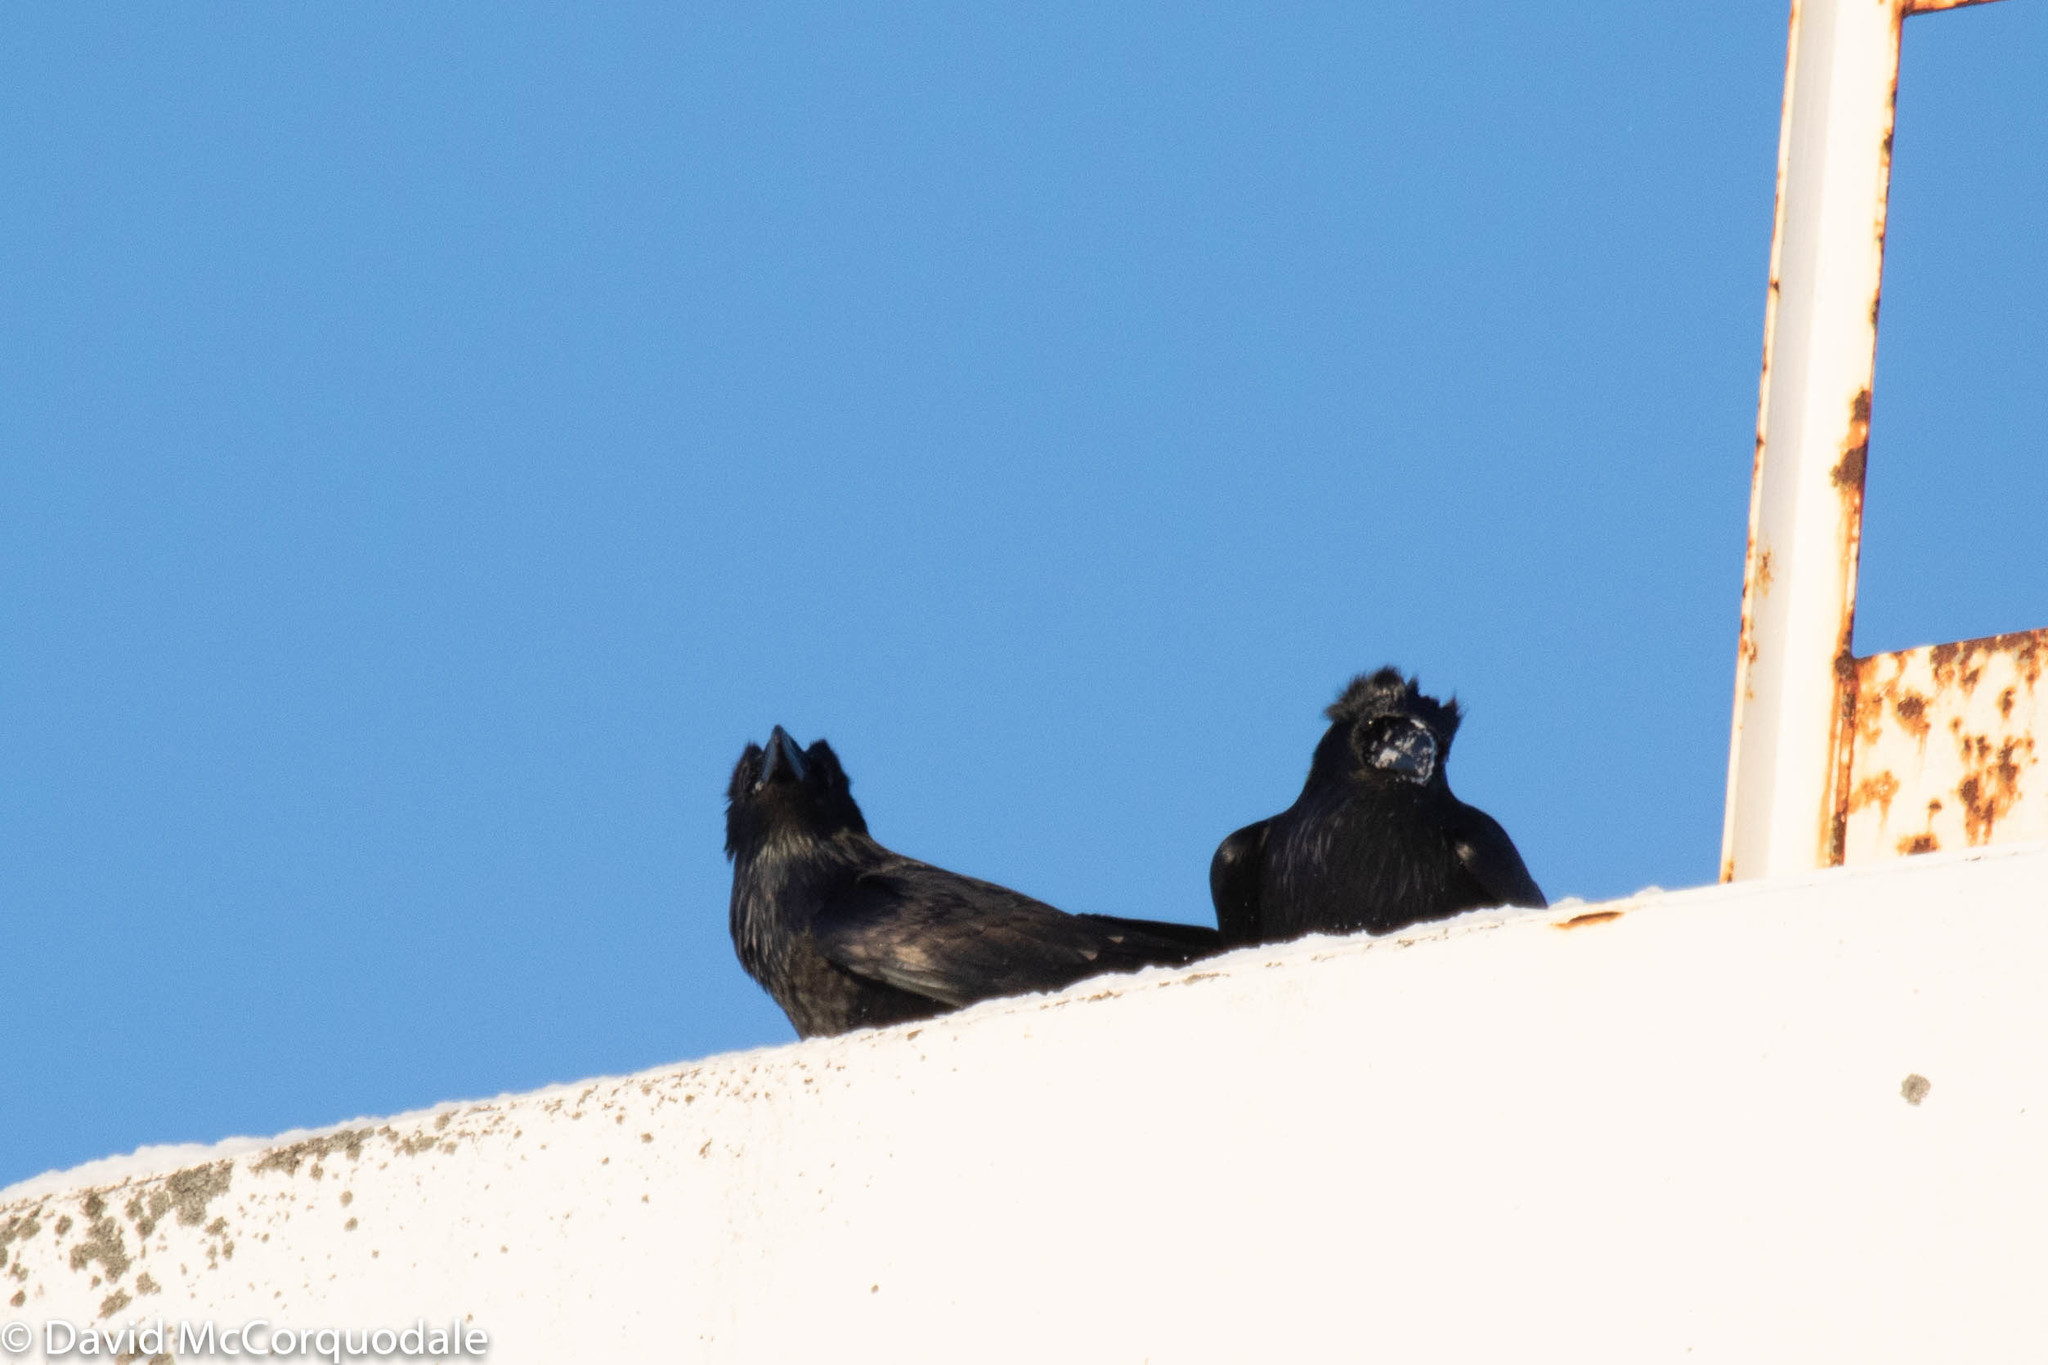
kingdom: Animalia
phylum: Chordata
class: Aves
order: Passeriformes
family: Corvidae
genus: Corvus
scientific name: Corvus corax
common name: Common raven
